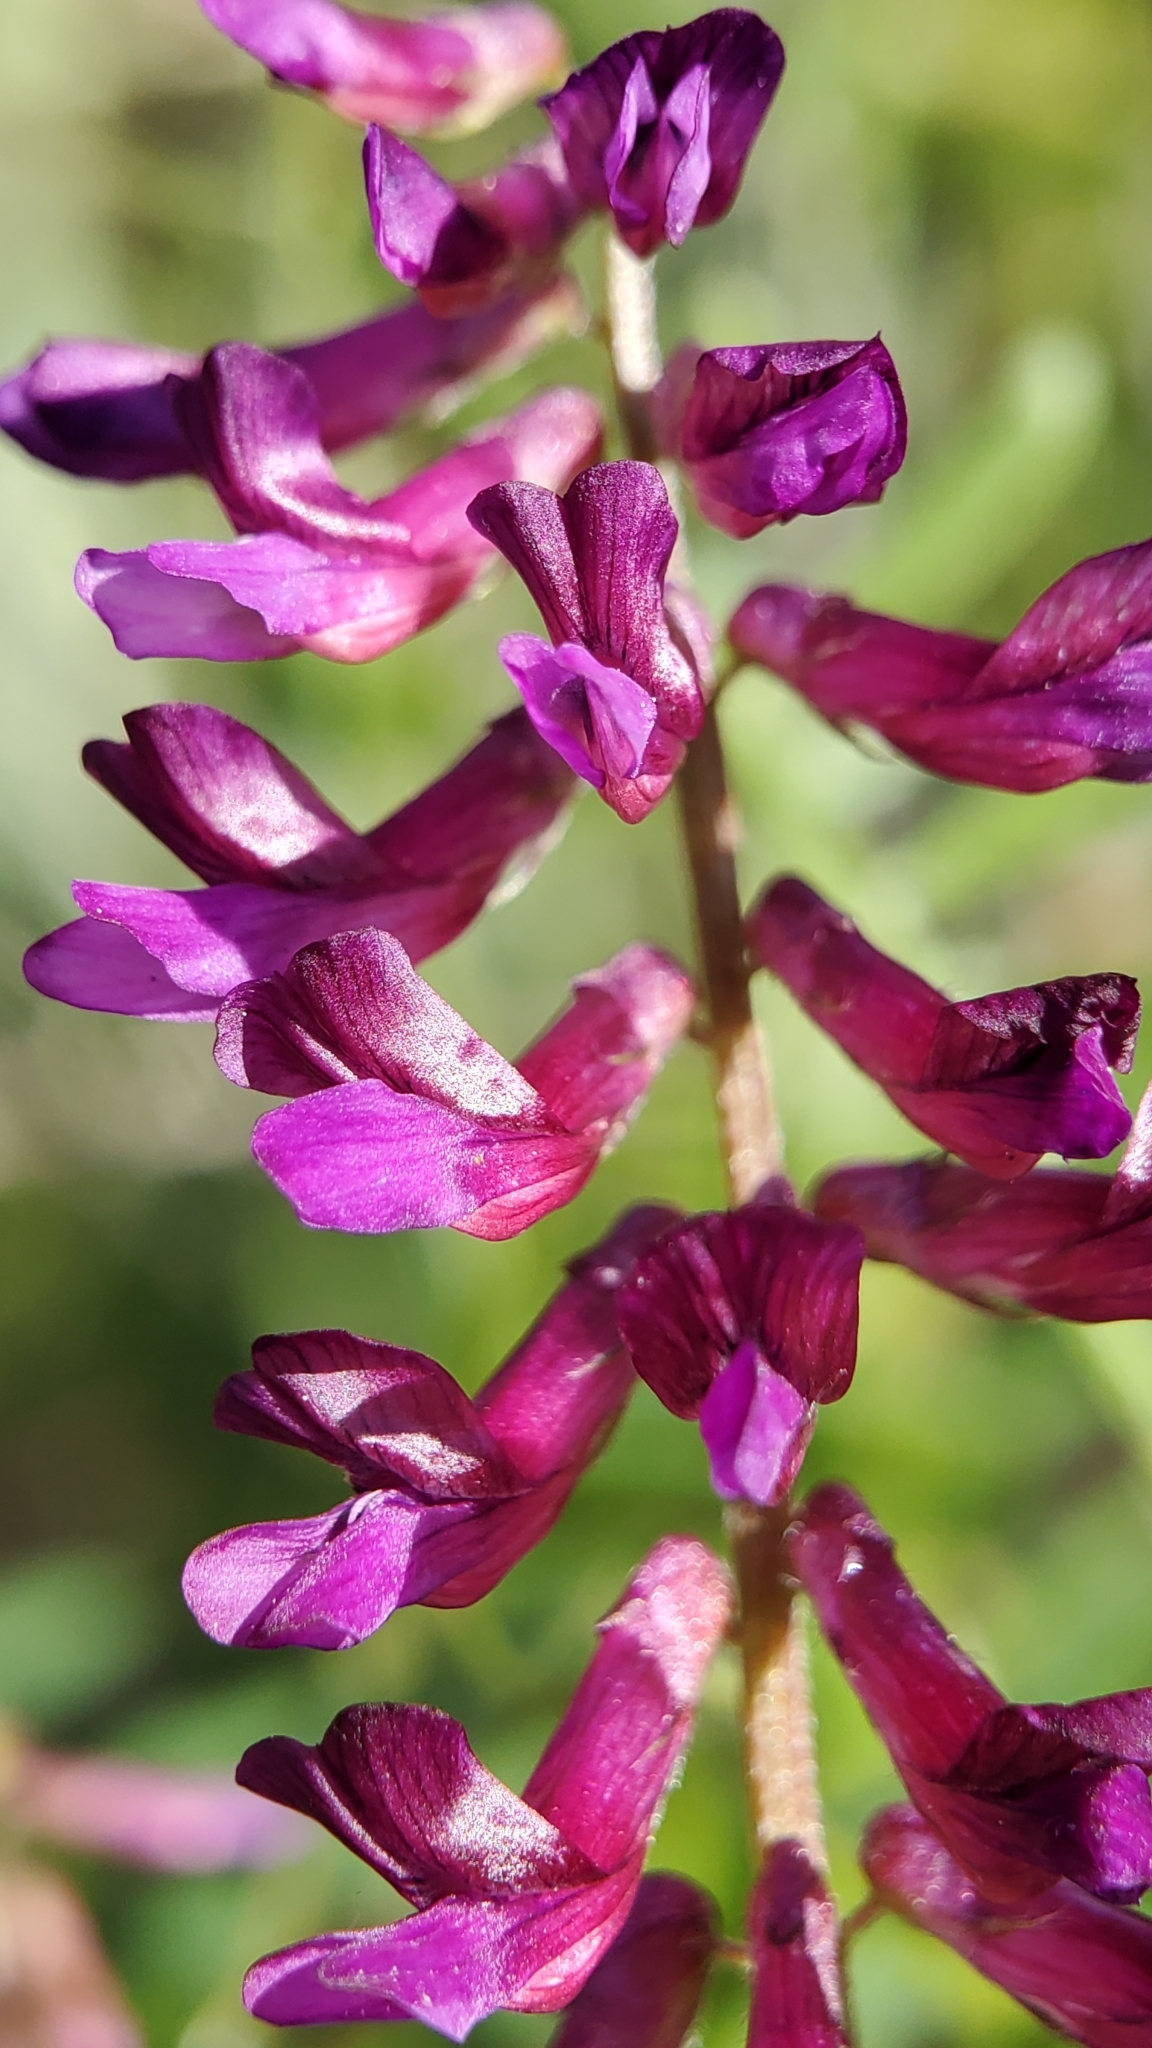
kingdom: Plantae
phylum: Tracheophyta
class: Magnoliopsida
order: Fabales
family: Fabaceae
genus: Vicia
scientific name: Vicia villosa
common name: Fodder vetch
